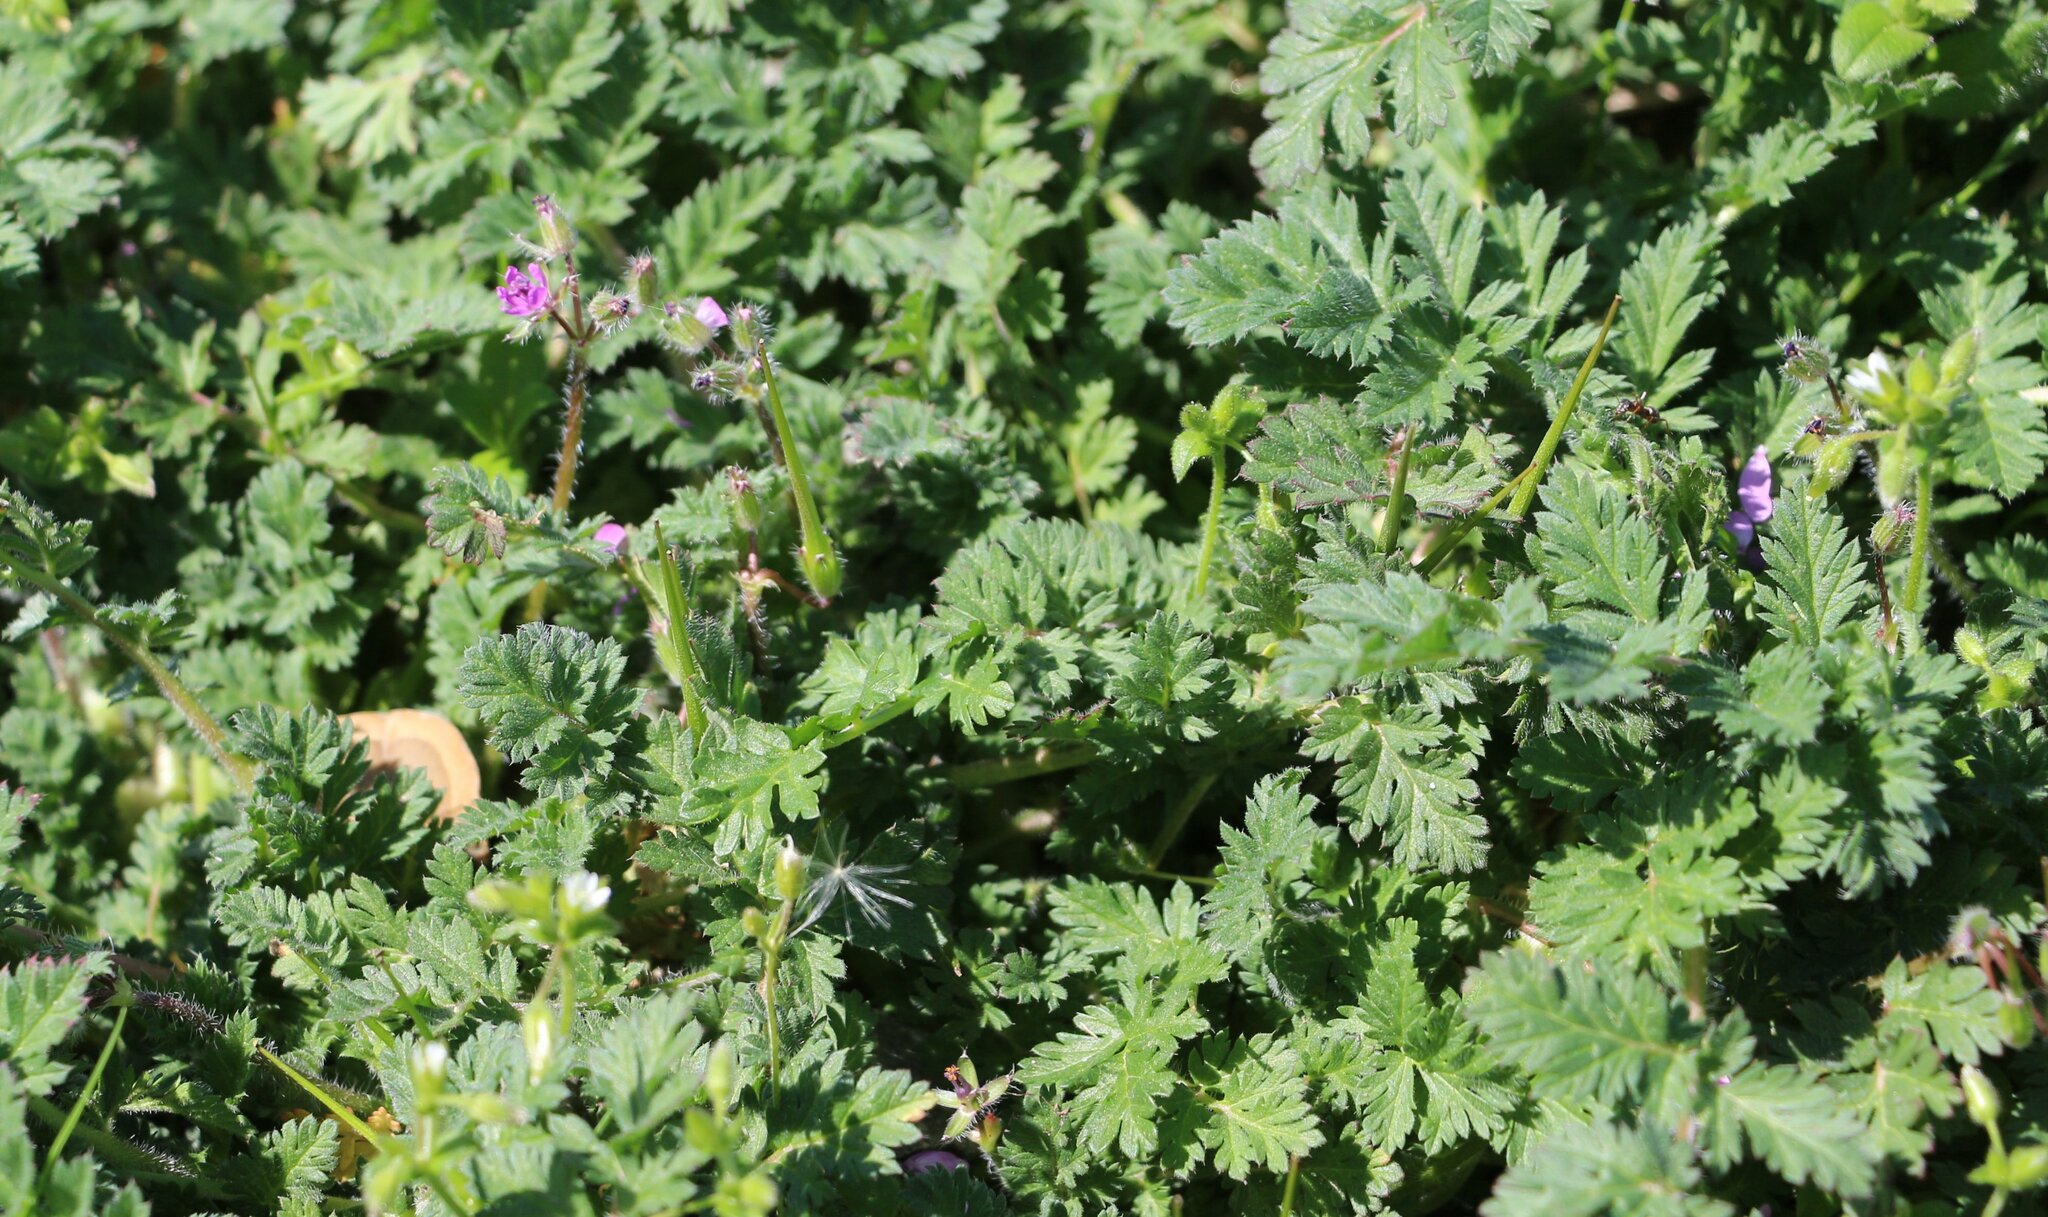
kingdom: Plantae
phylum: Tracheophyta
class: Magnoliopsida
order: Geraniales
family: Geraniaceae
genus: Erodium
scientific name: Erodium cicutarium
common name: Common stork's-bill
